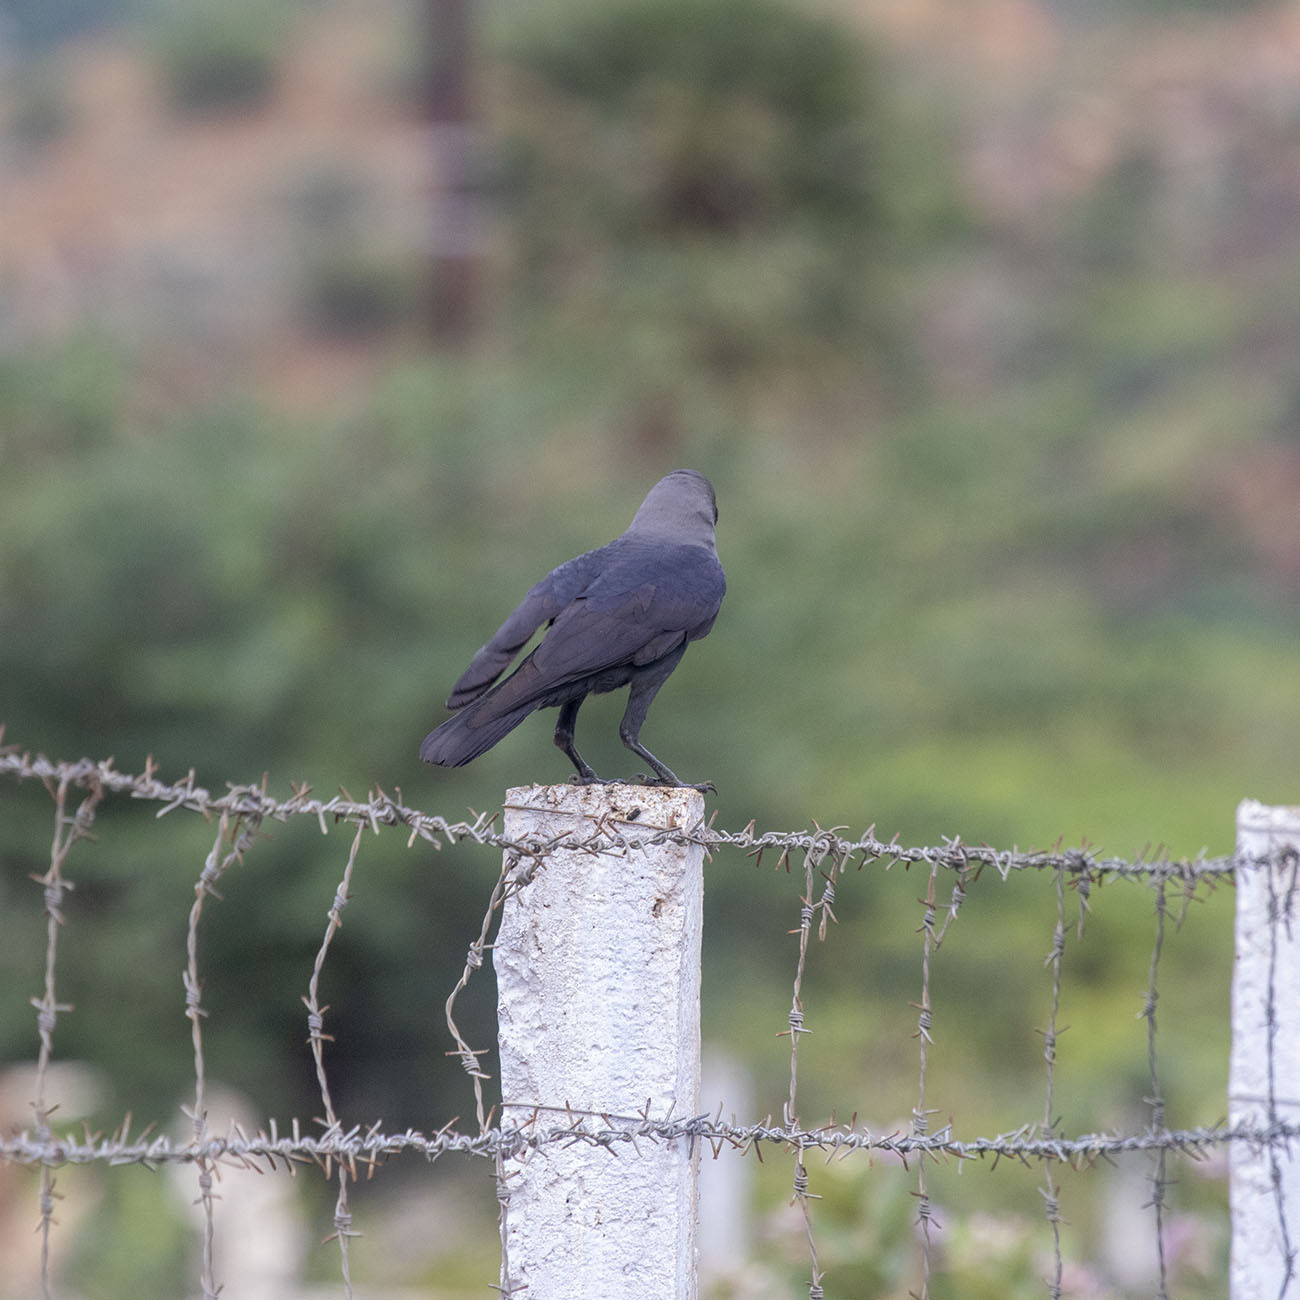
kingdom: Animalia
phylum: Chordata
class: Aves
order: Passeriformes
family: Corvidae
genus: Corvus
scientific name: Corvus splendens
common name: House crow
